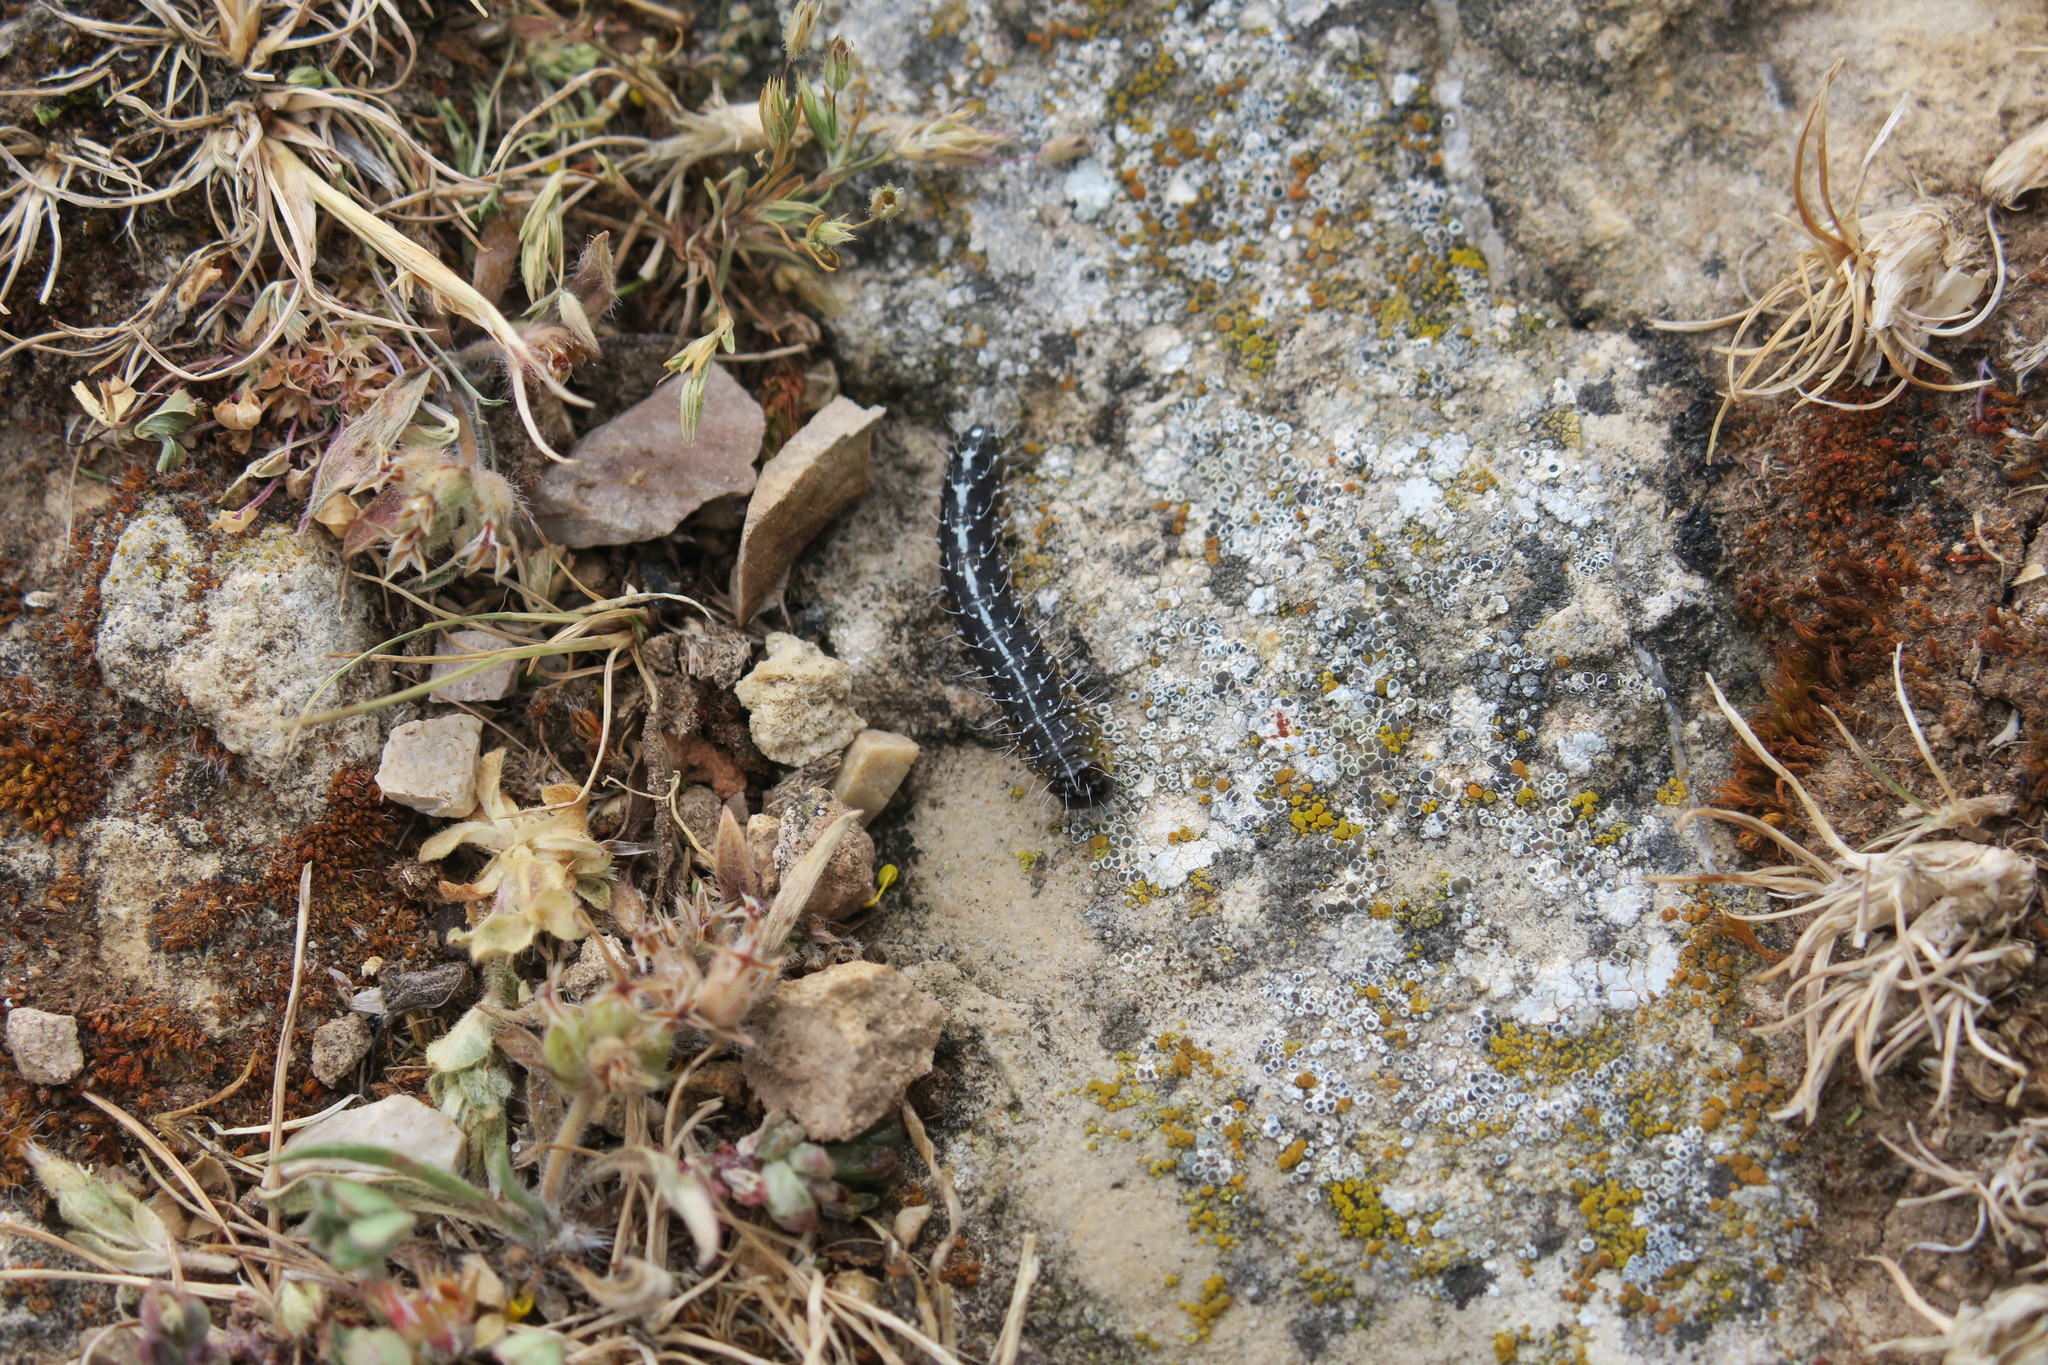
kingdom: Animalia
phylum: Arthropoda
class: Insecta
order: Lepidoptera
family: Noctuidae
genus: Nyctobrya
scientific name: Nyctobrya muralis
